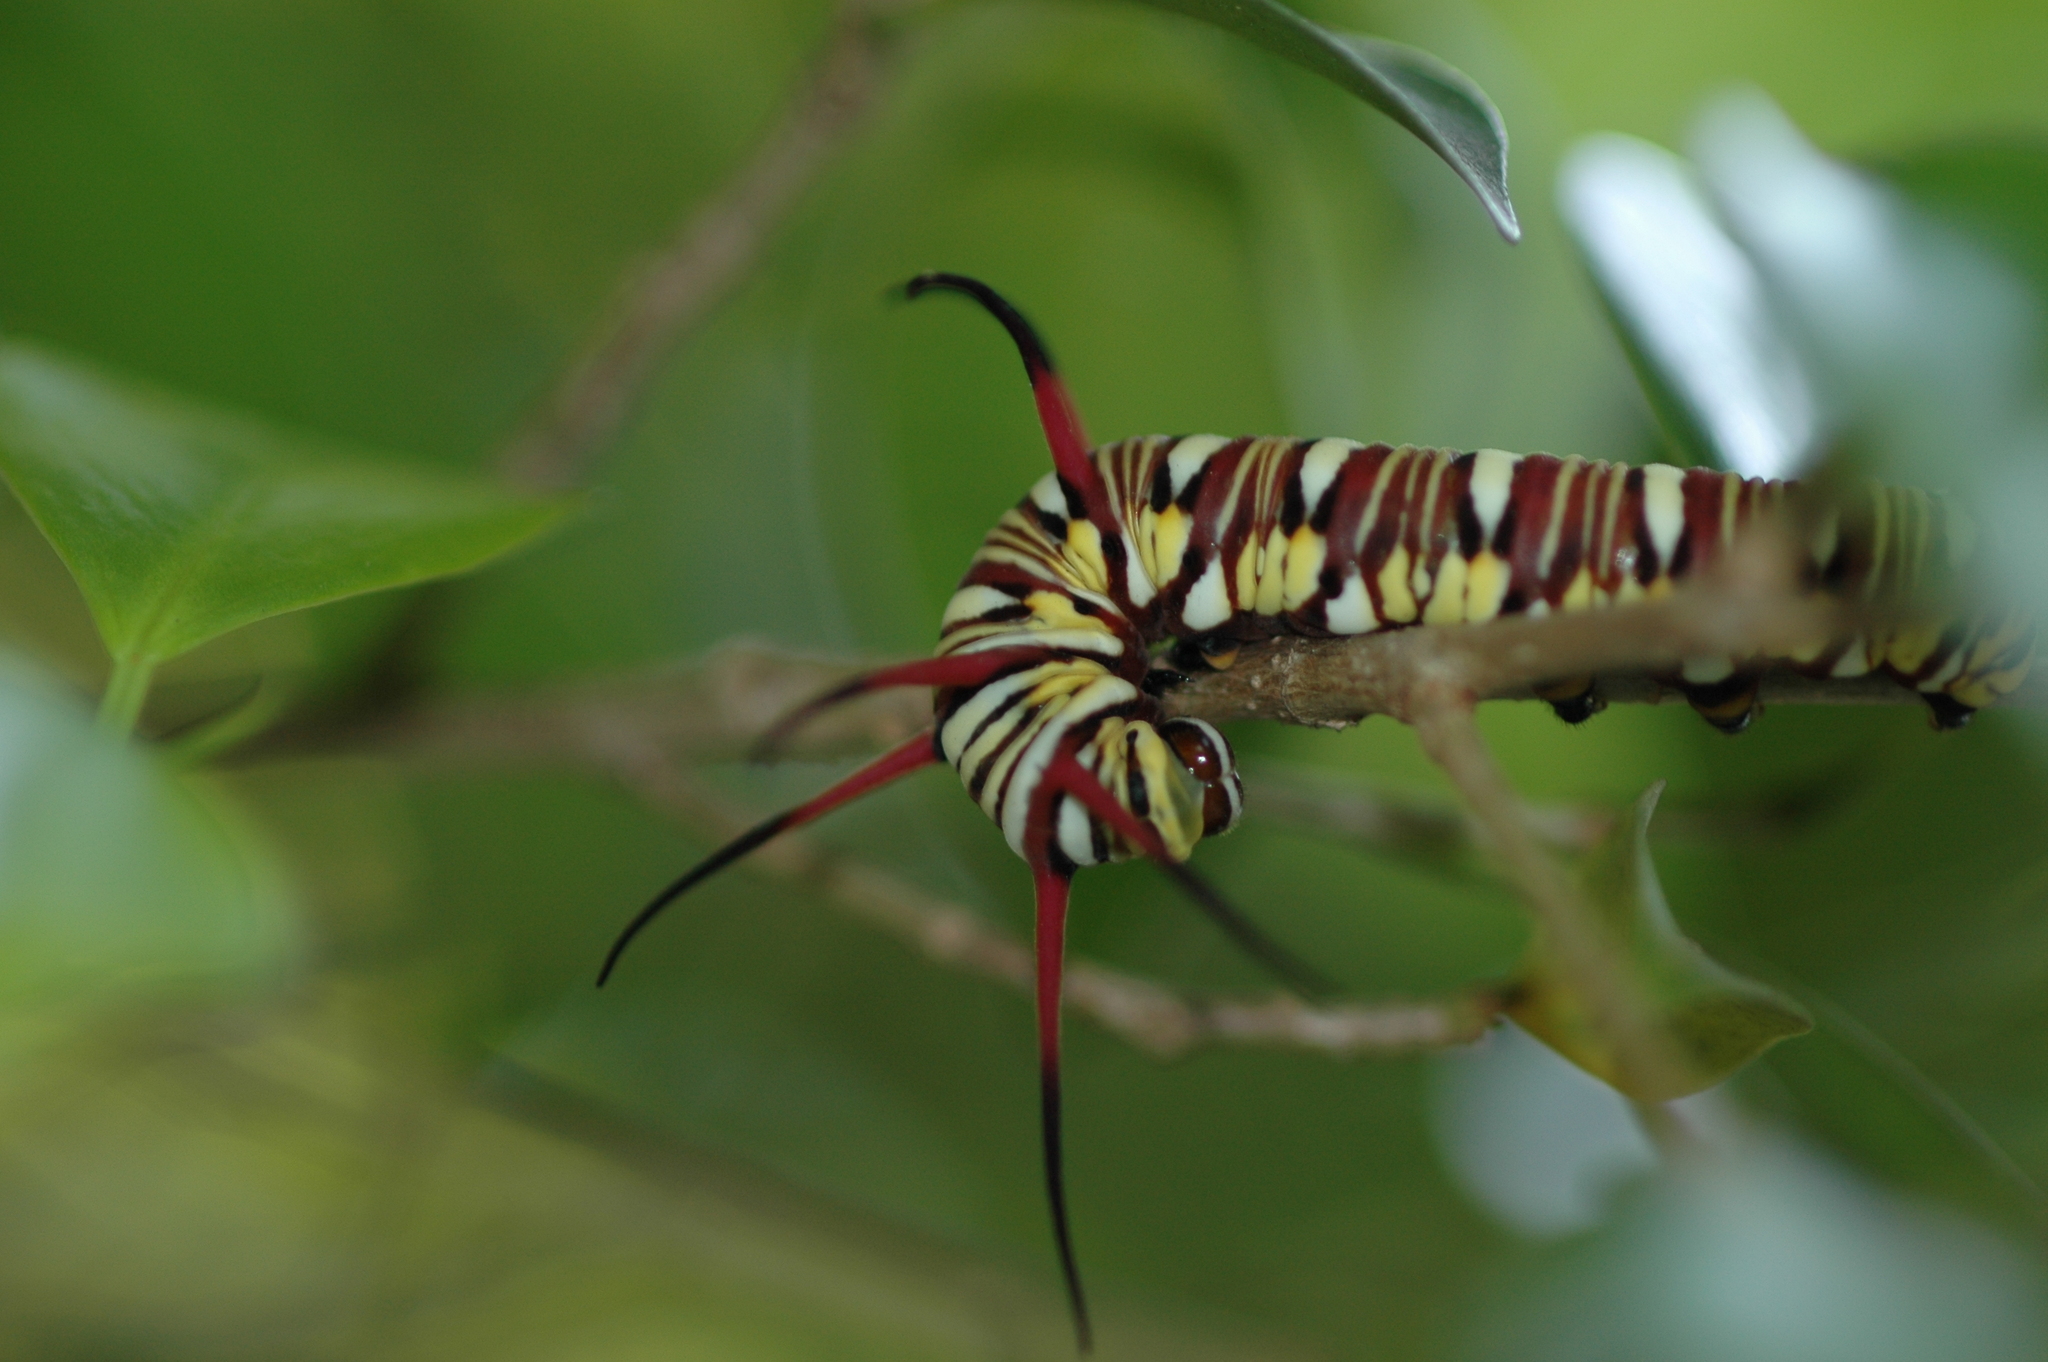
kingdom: Animalia
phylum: Arthropoda
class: Insecta
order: Lepidoptera
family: Nymphalidae
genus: Euploea
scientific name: Euploea mulciber
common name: Striped blue crow butterfly
